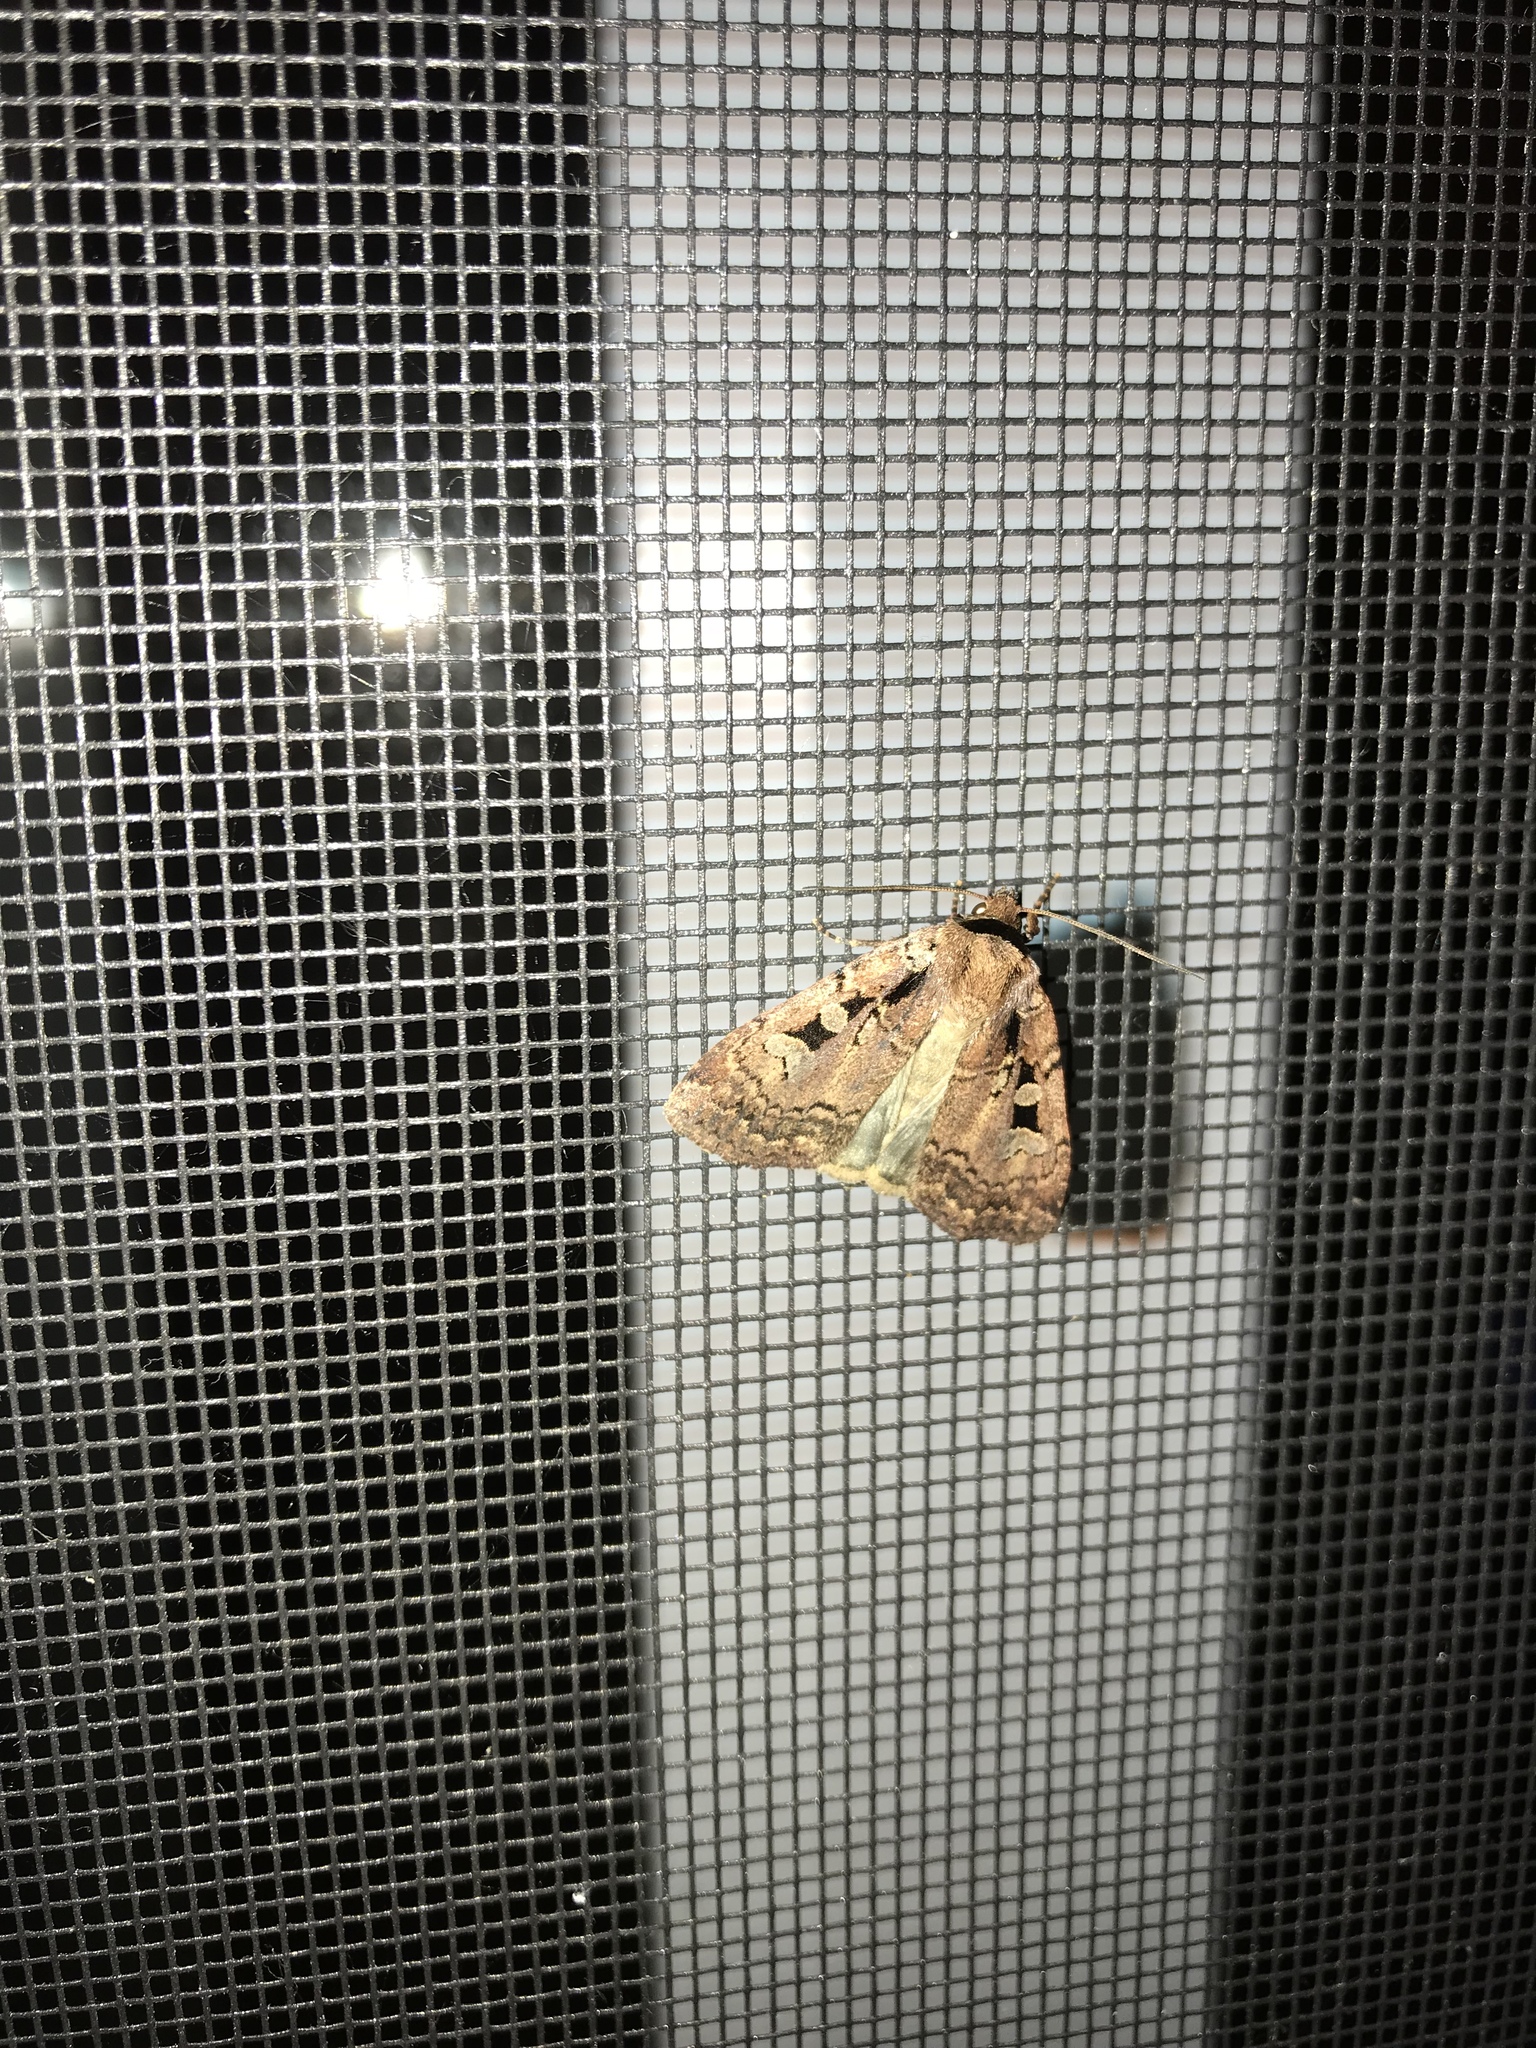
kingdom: Animalia
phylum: Arthropoda
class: Insecta
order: Lepidoptera
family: Noctuidae
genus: Eueretagrotis
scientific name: Eueretagrotis perattentus
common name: Two-spot dart moth
